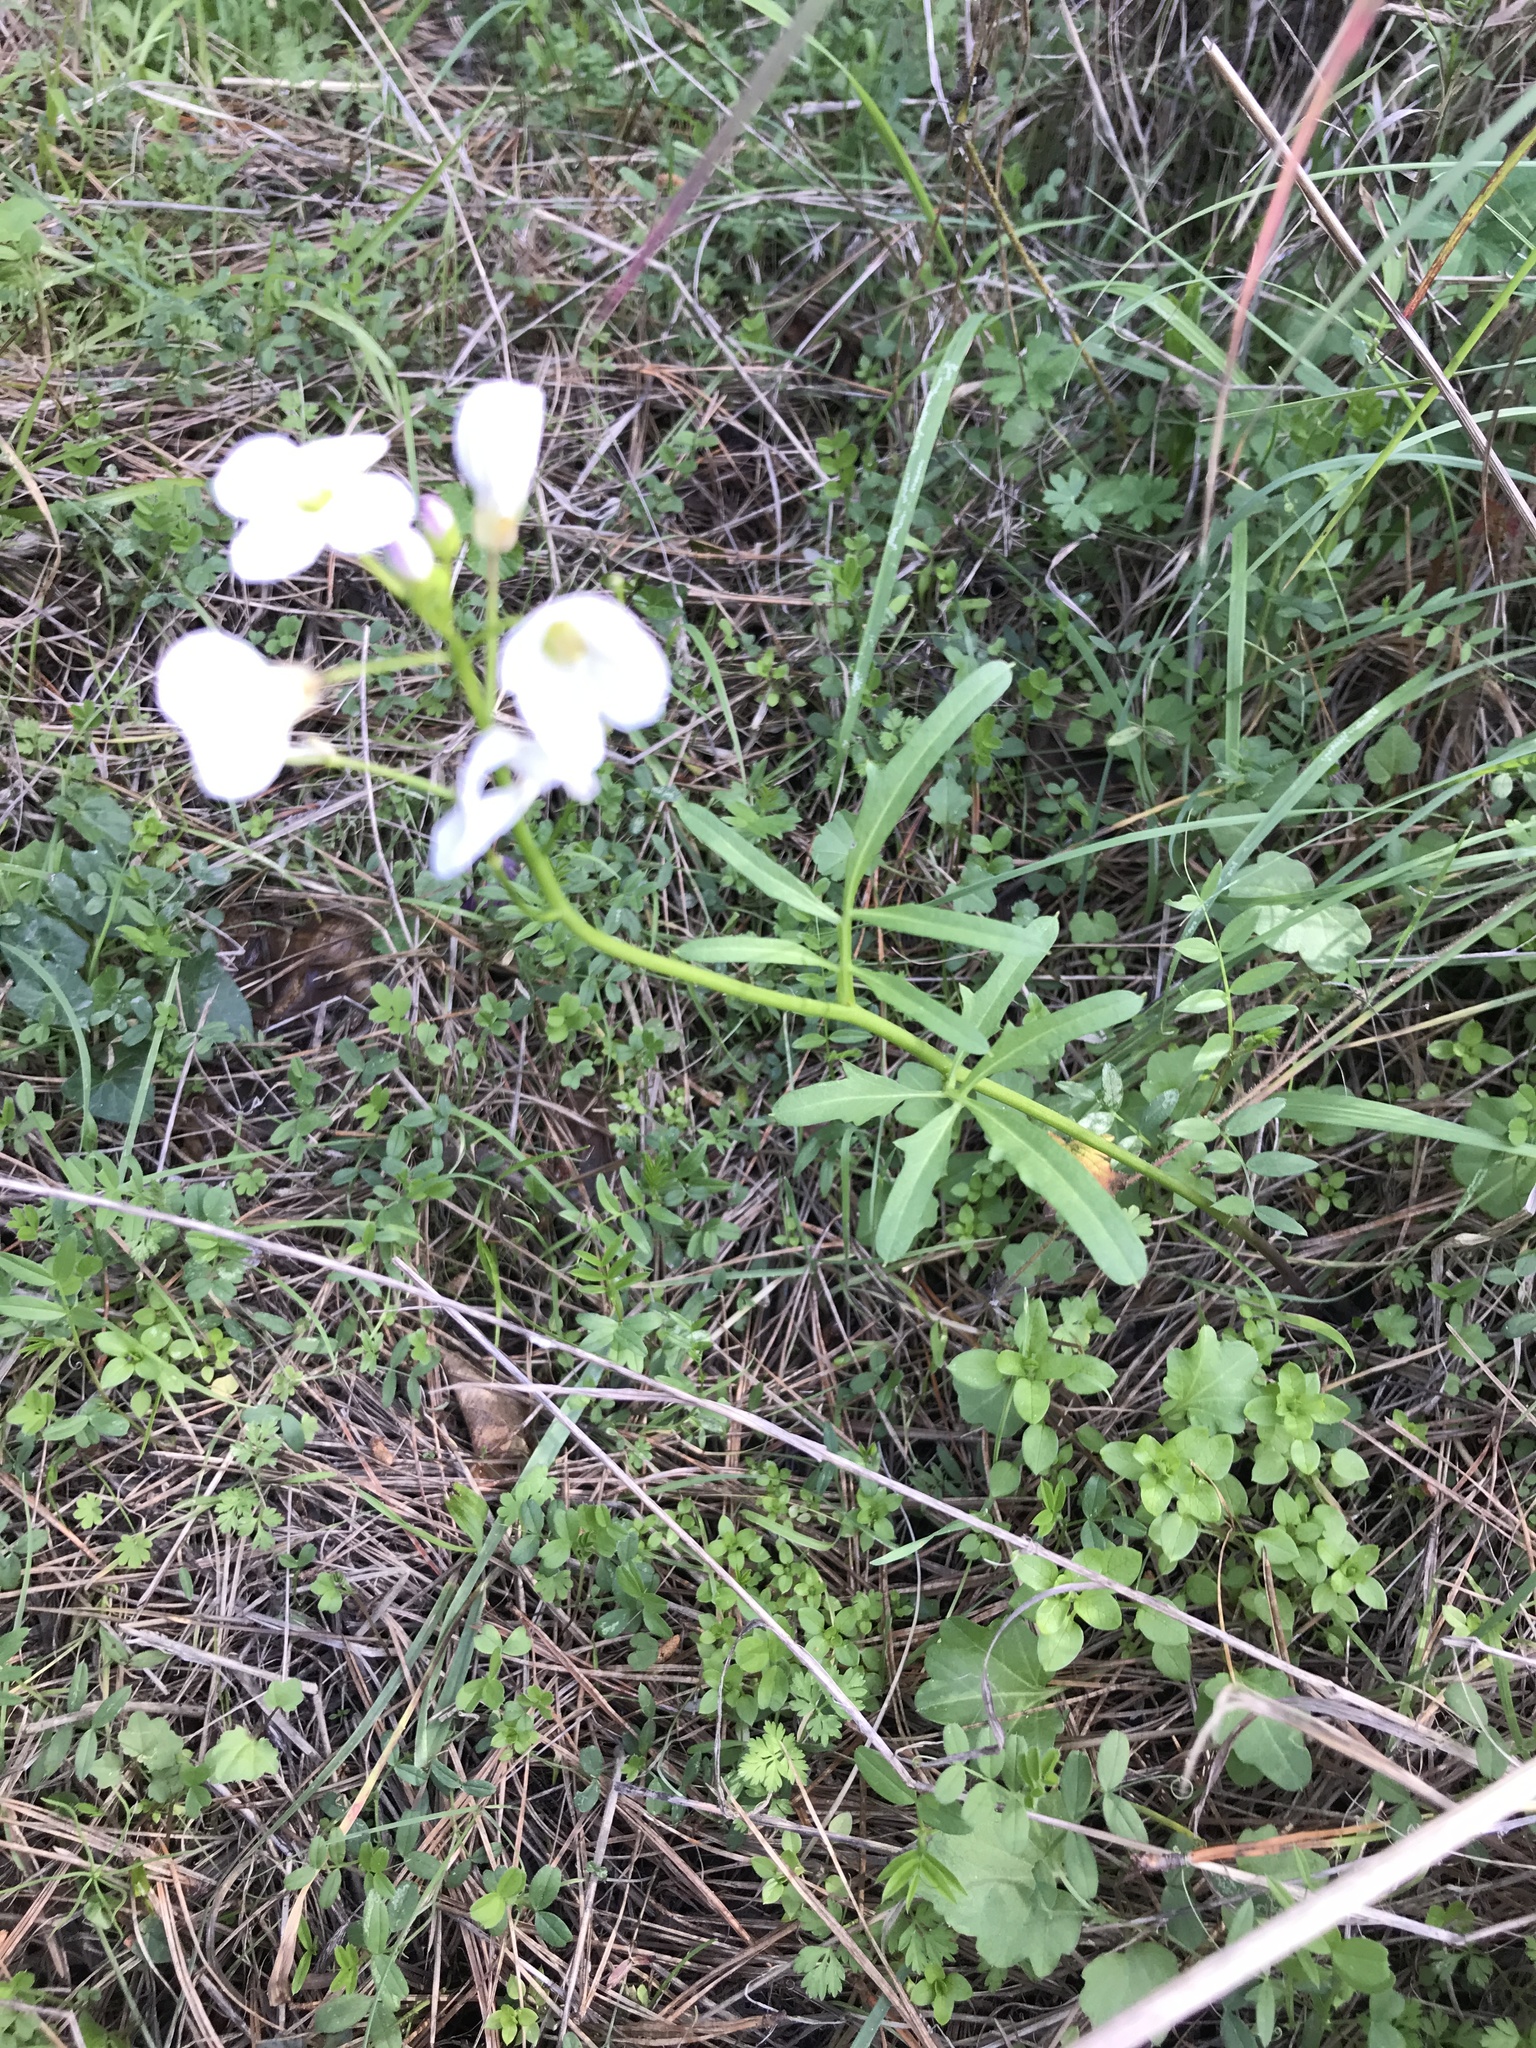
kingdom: Plantae
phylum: Tracheophyta
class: Magnoliopsida
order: Brassicales
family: Brassicaceae
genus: Cardamine
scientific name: Cardamine californica
